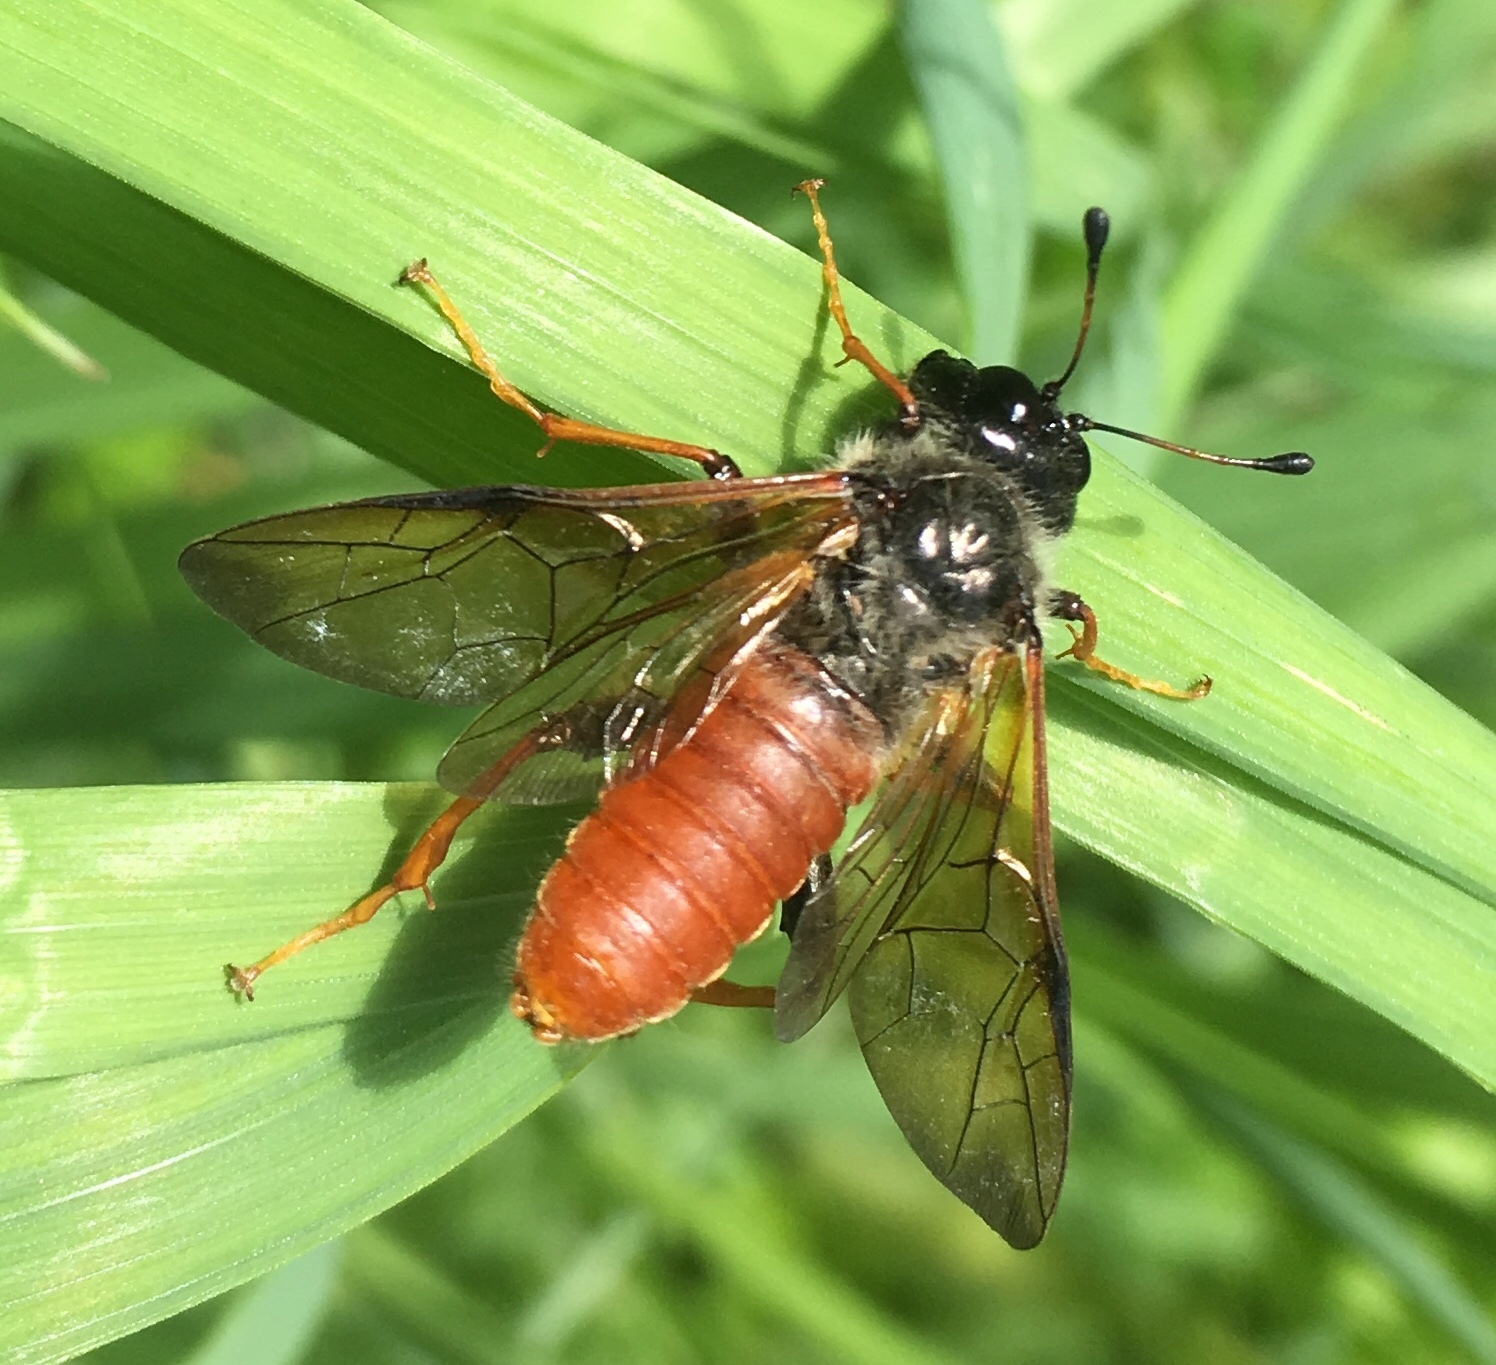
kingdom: Animalia
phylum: Arthropoda
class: Insecta
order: Hymenoptera
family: Cimbicidae
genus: Trichiosoma
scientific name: Trichiosoma triangulum
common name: Giant birch sawfly
